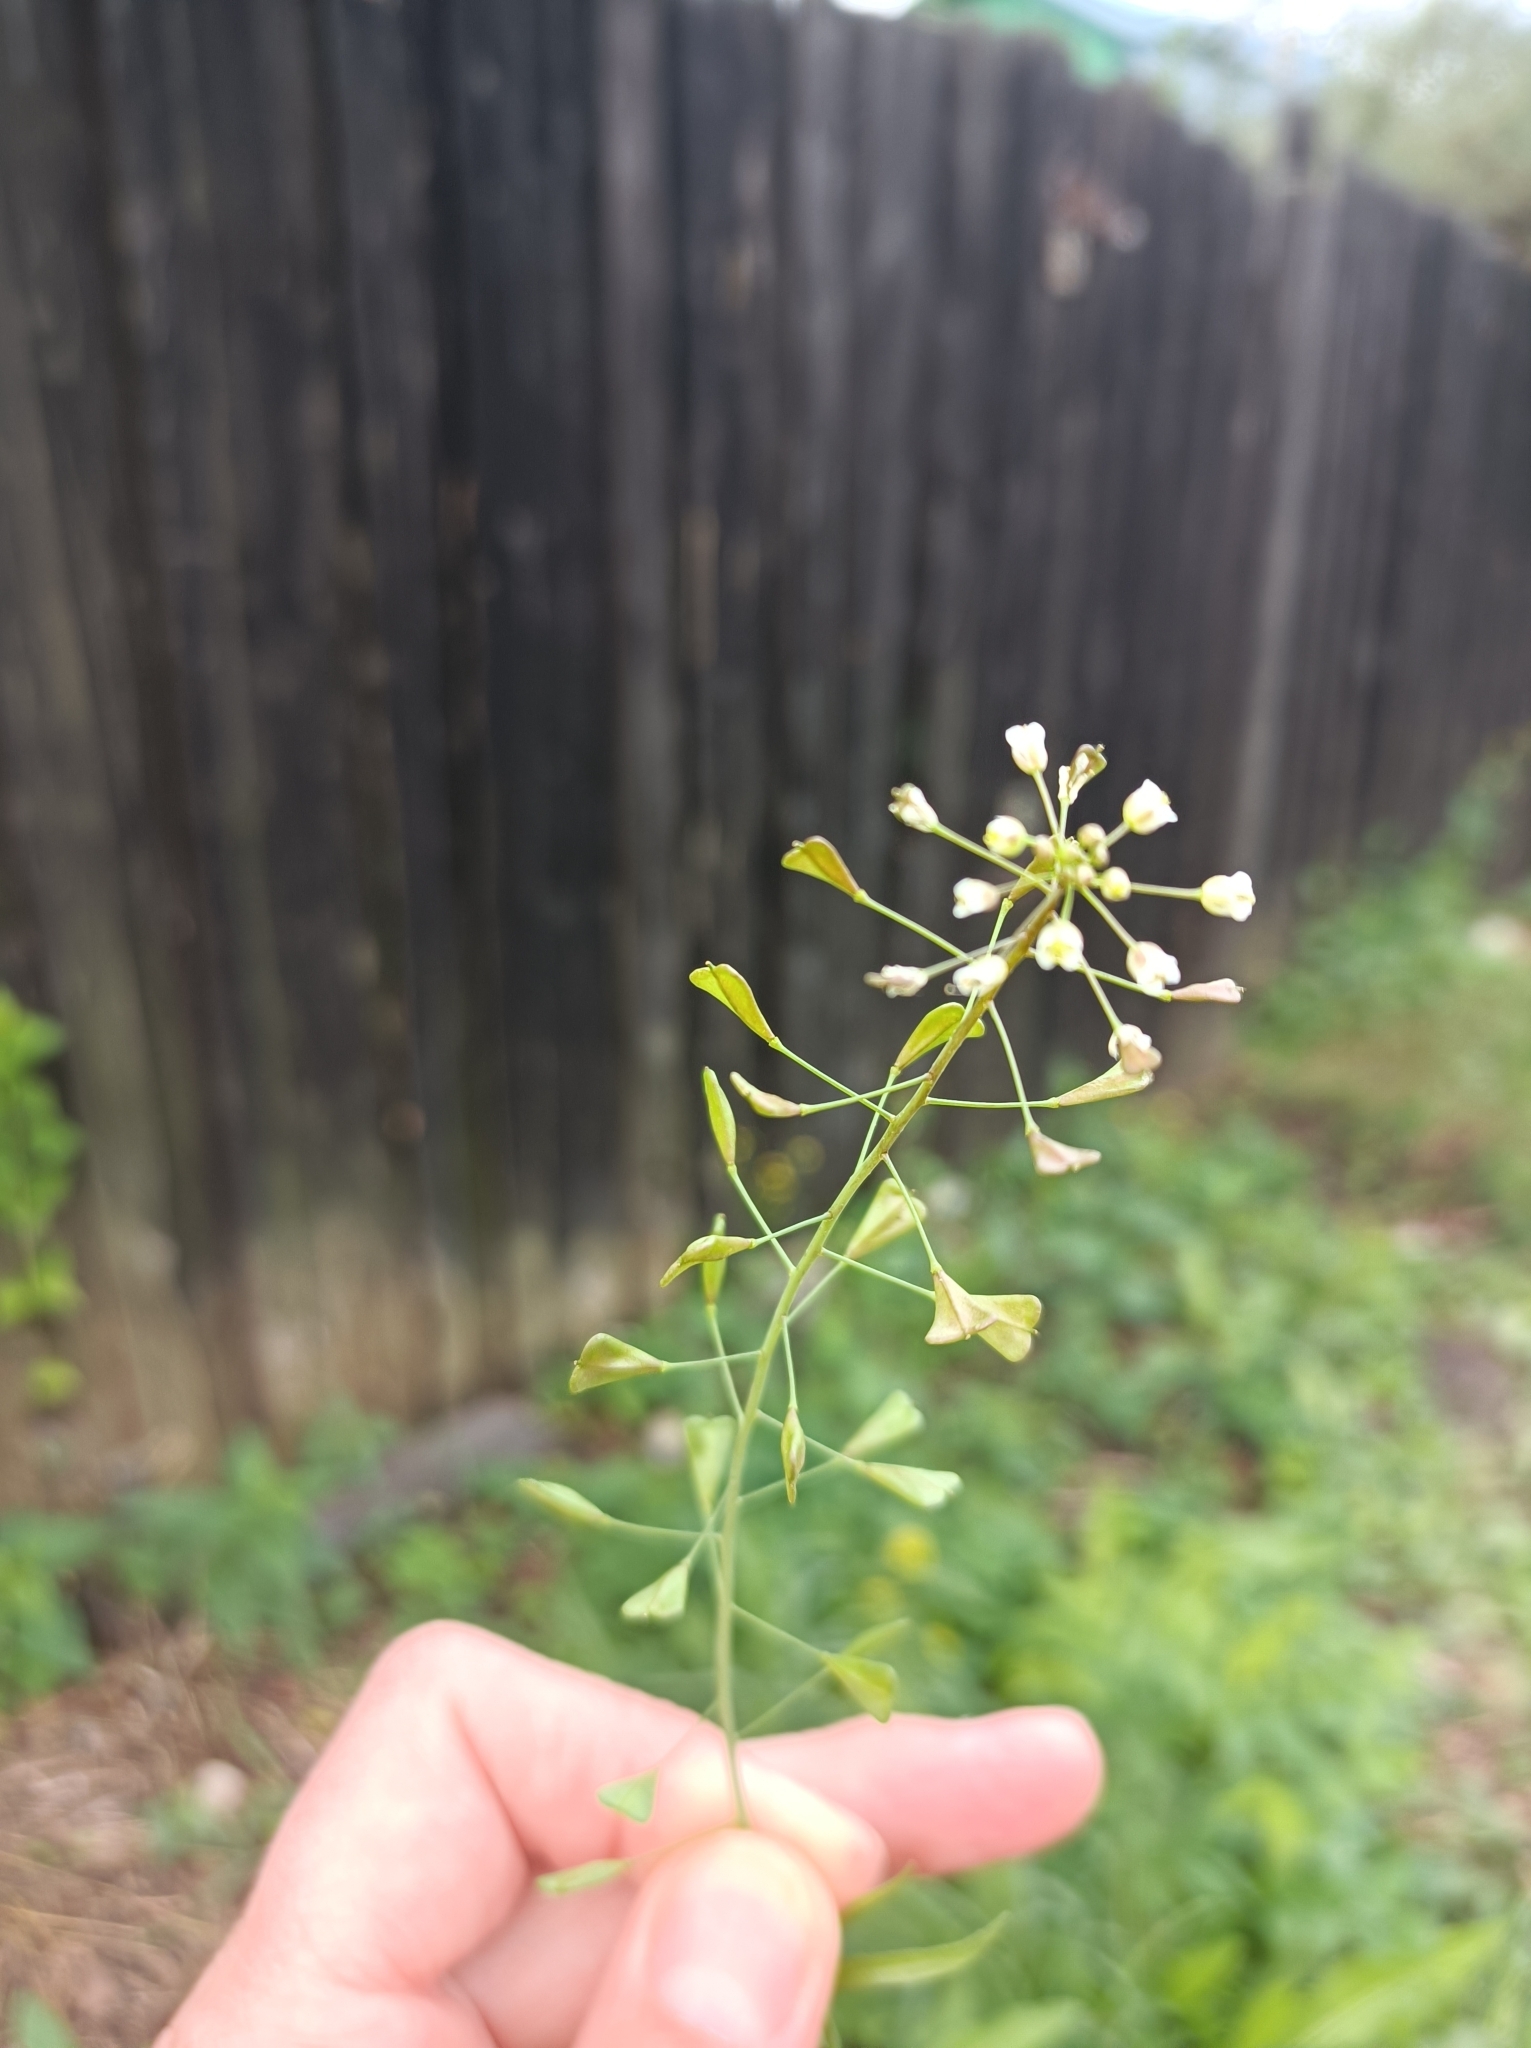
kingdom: Plantae
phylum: Tracheophyta
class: Magnoliopsida
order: Brassicales
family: Brassicaceae
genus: Capsella
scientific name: Capsella bursa-pastoris
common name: Shepherd's purse
